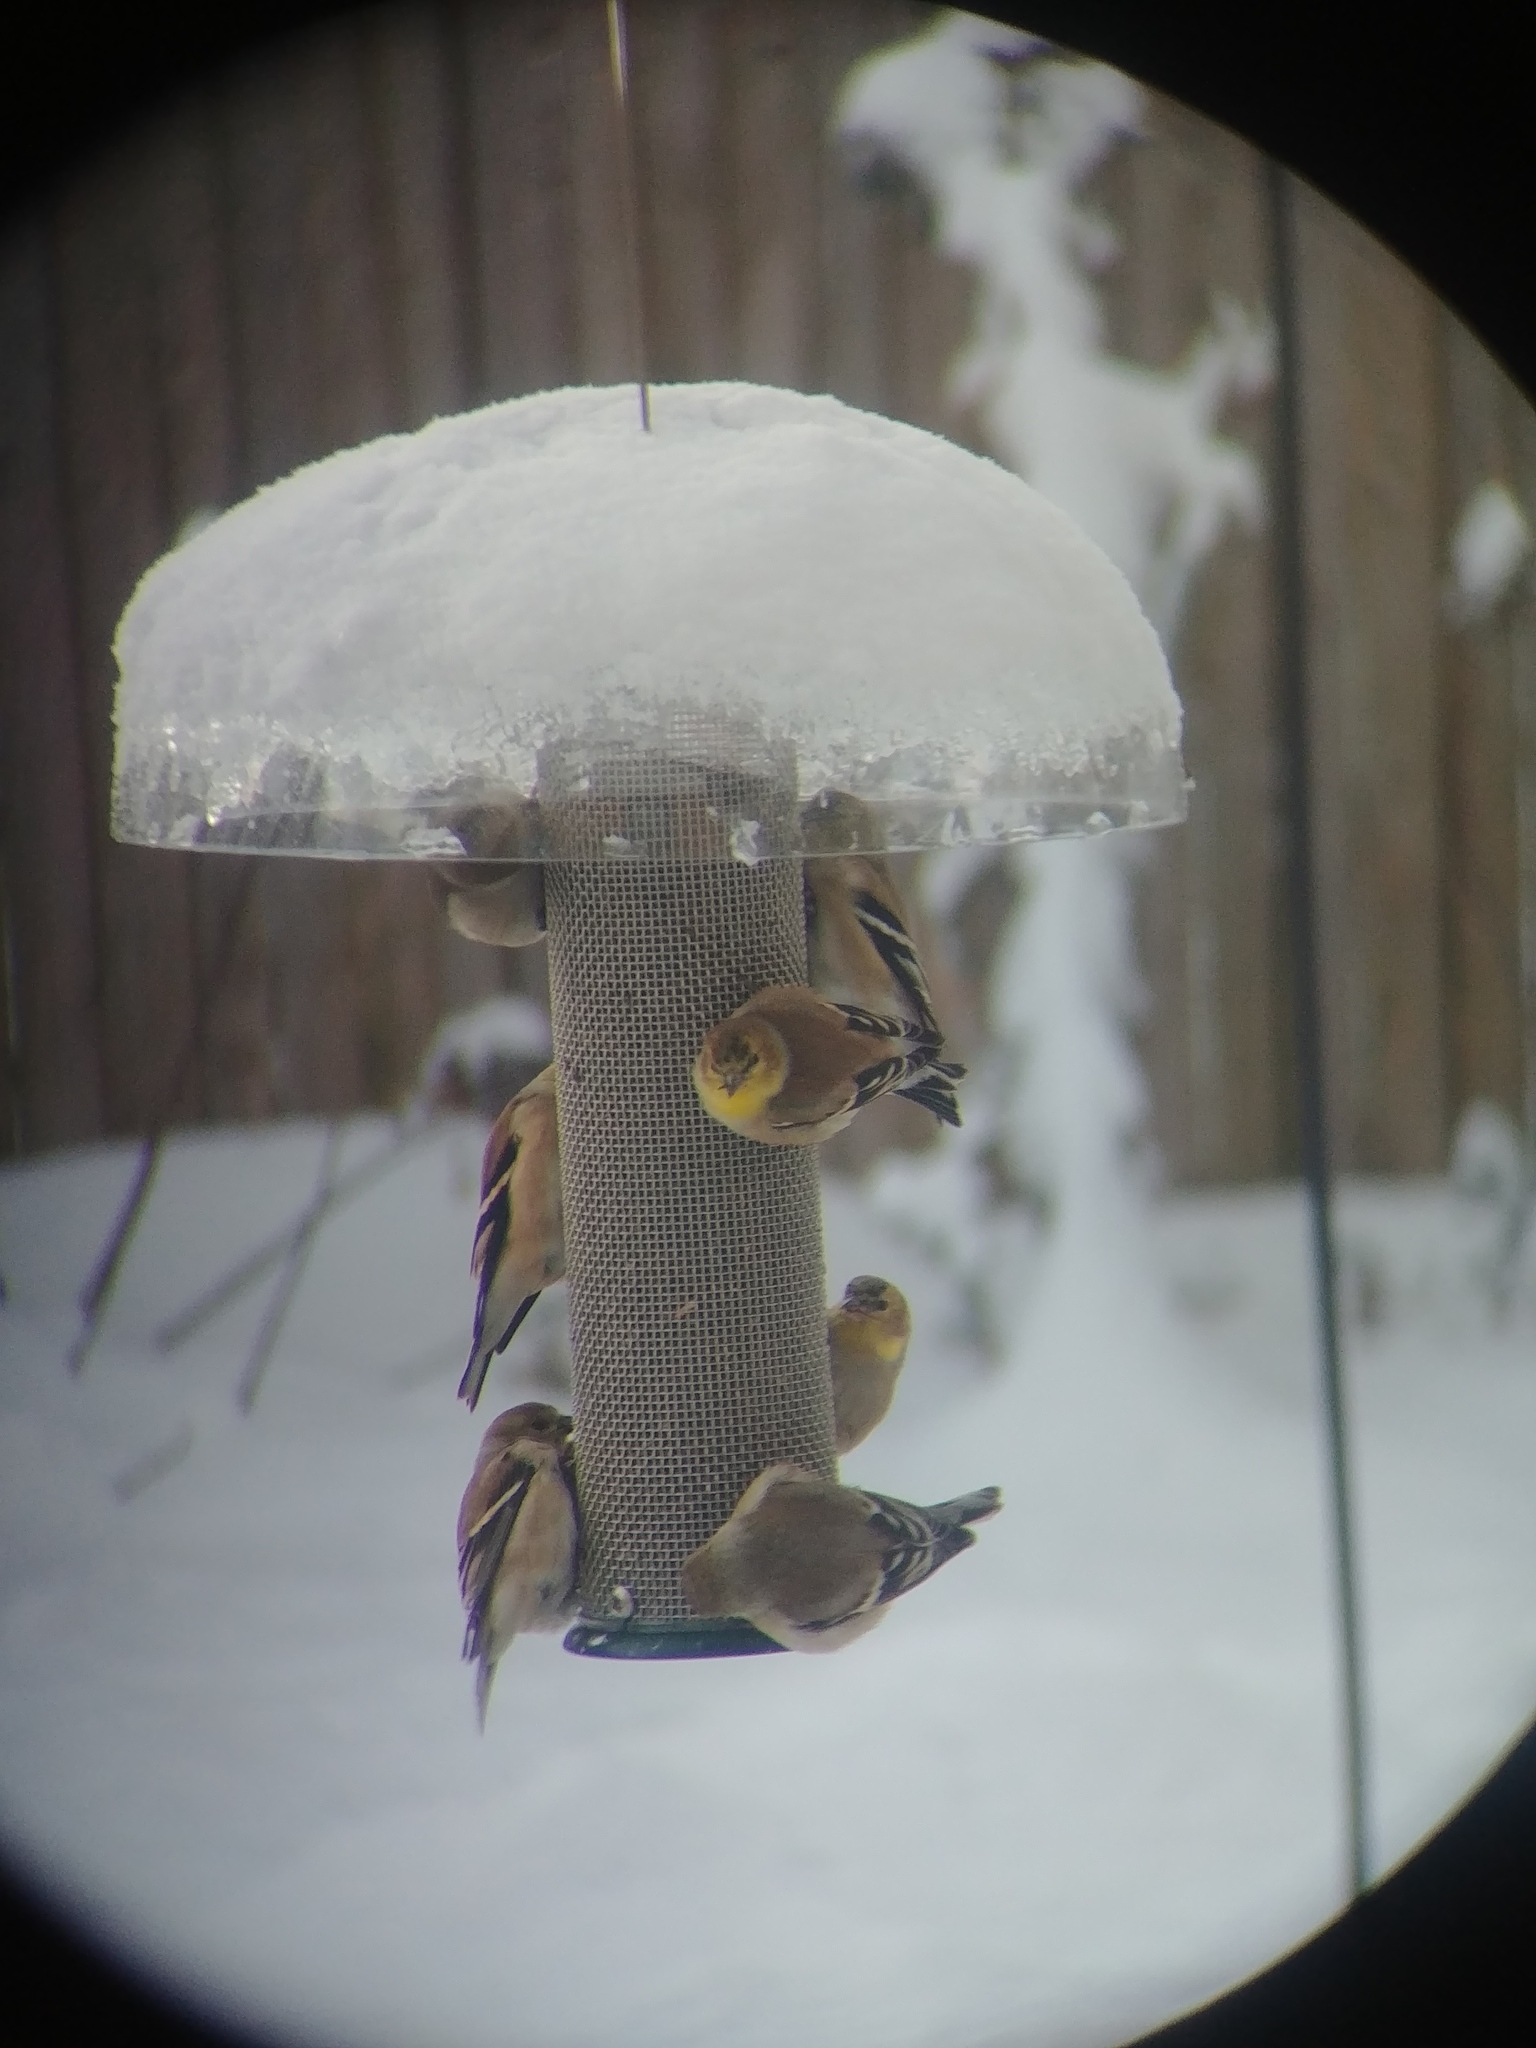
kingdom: Animalia
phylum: Chordata
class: Aves
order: Passeriformes
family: Fringillidae
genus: Spinus
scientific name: Spinus tristis
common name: American goldfinch
